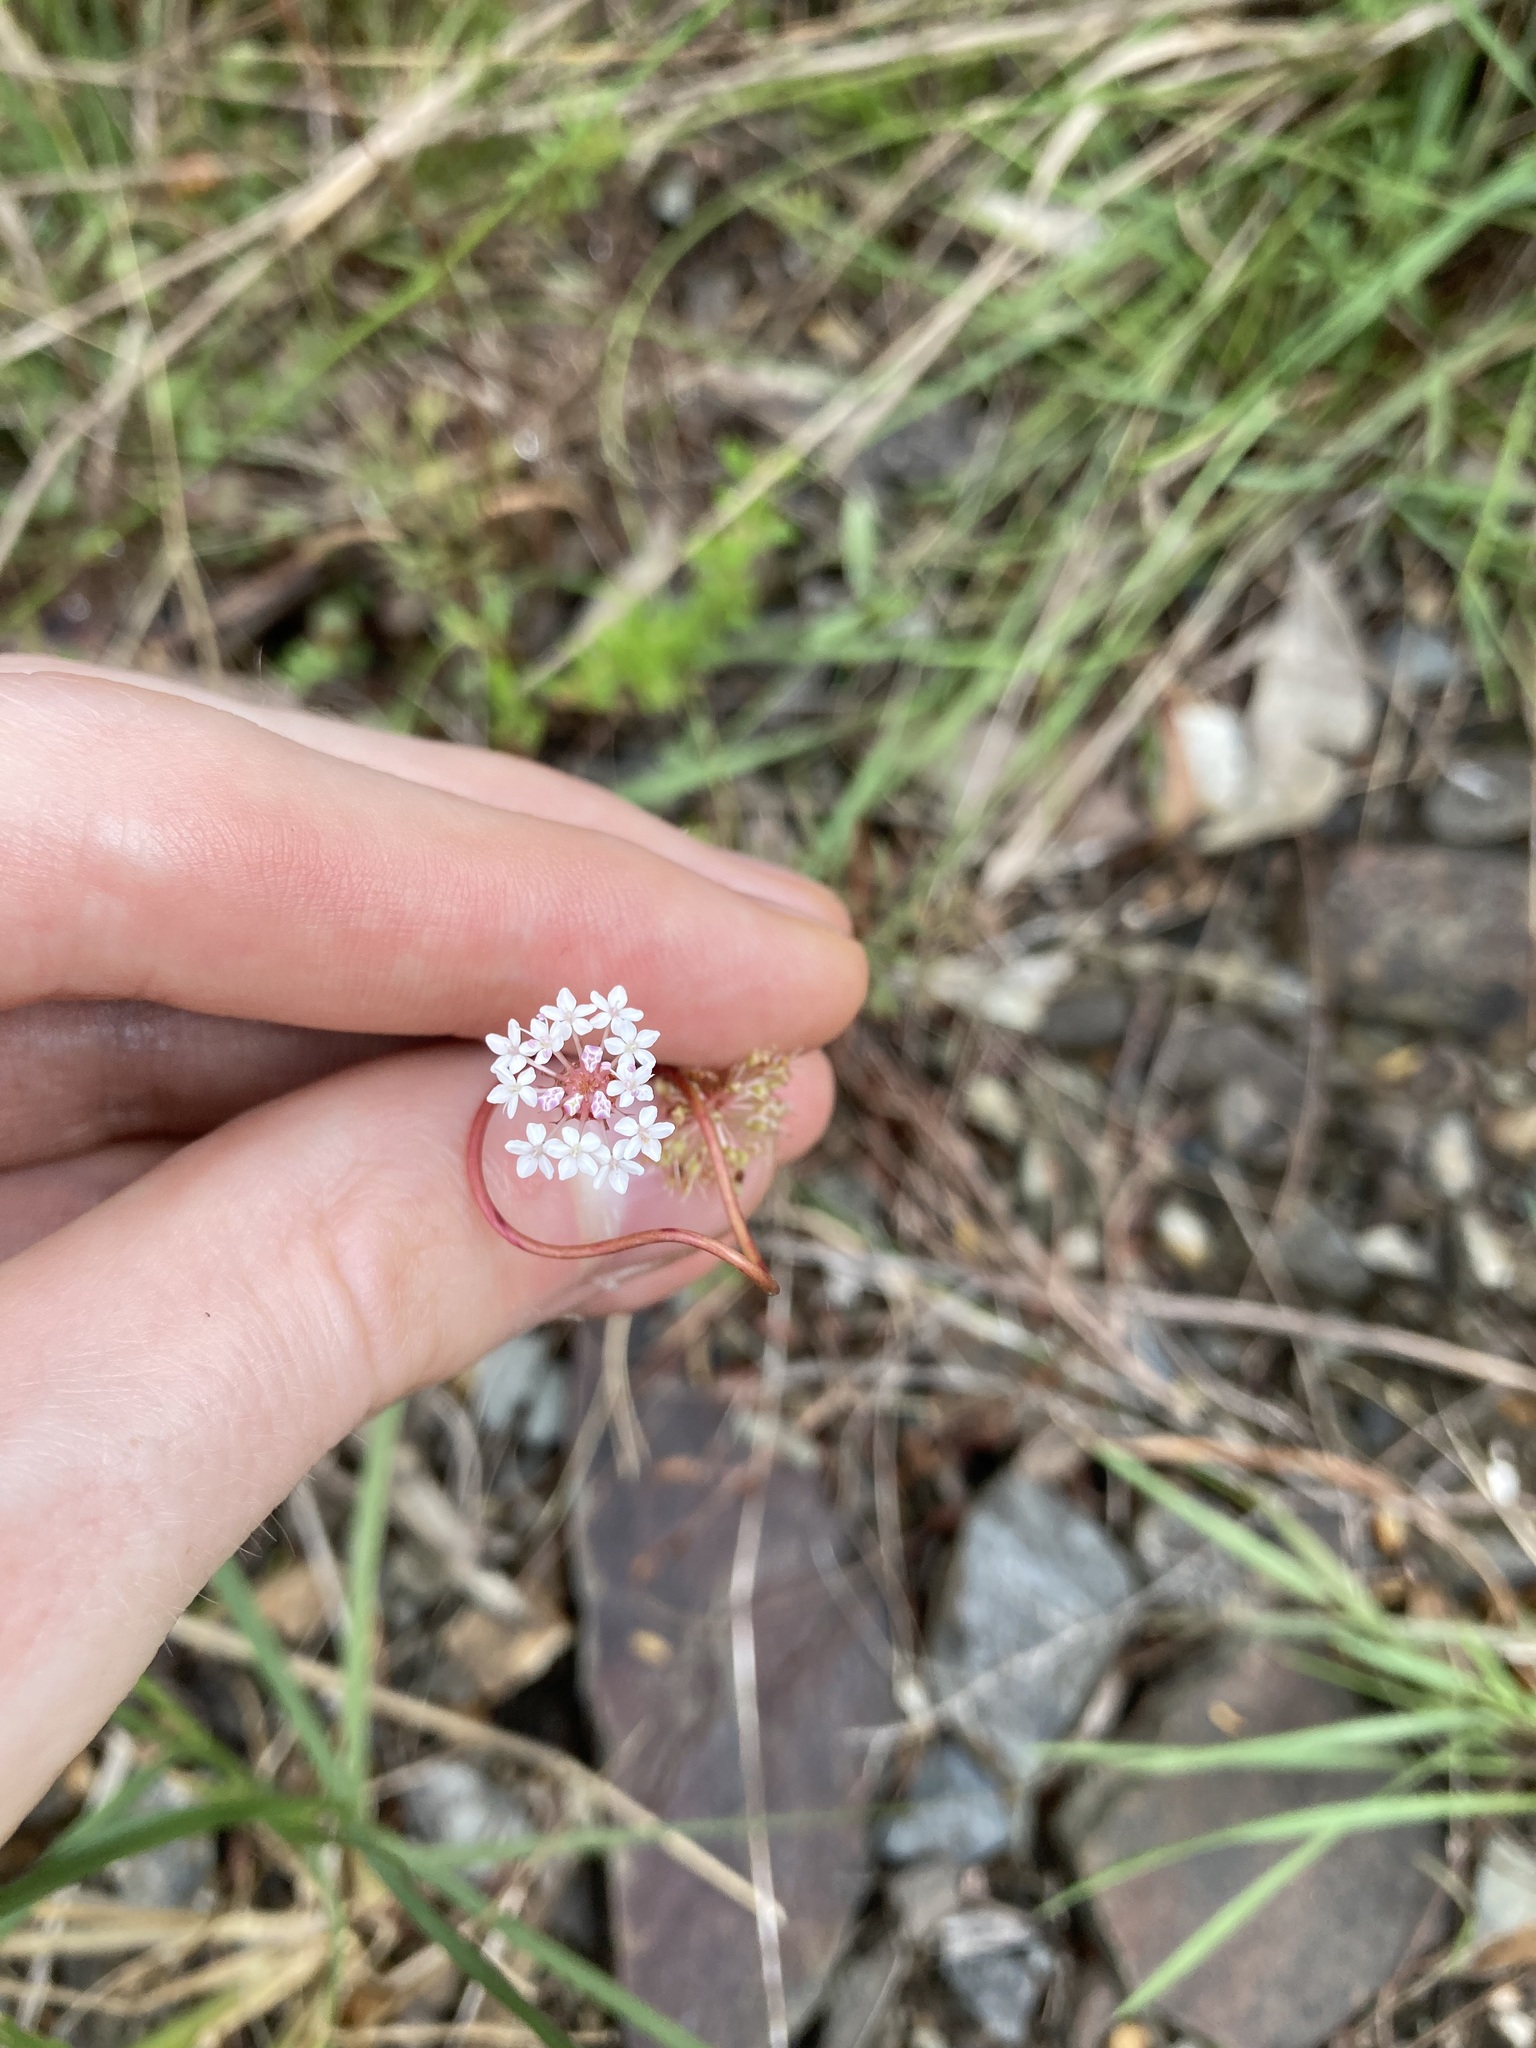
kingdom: Plantae
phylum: Tracheophyta
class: Magnoliopsida
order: Apiales
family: Araliaceae
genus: Trachymene
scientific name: Trachymene incisa
